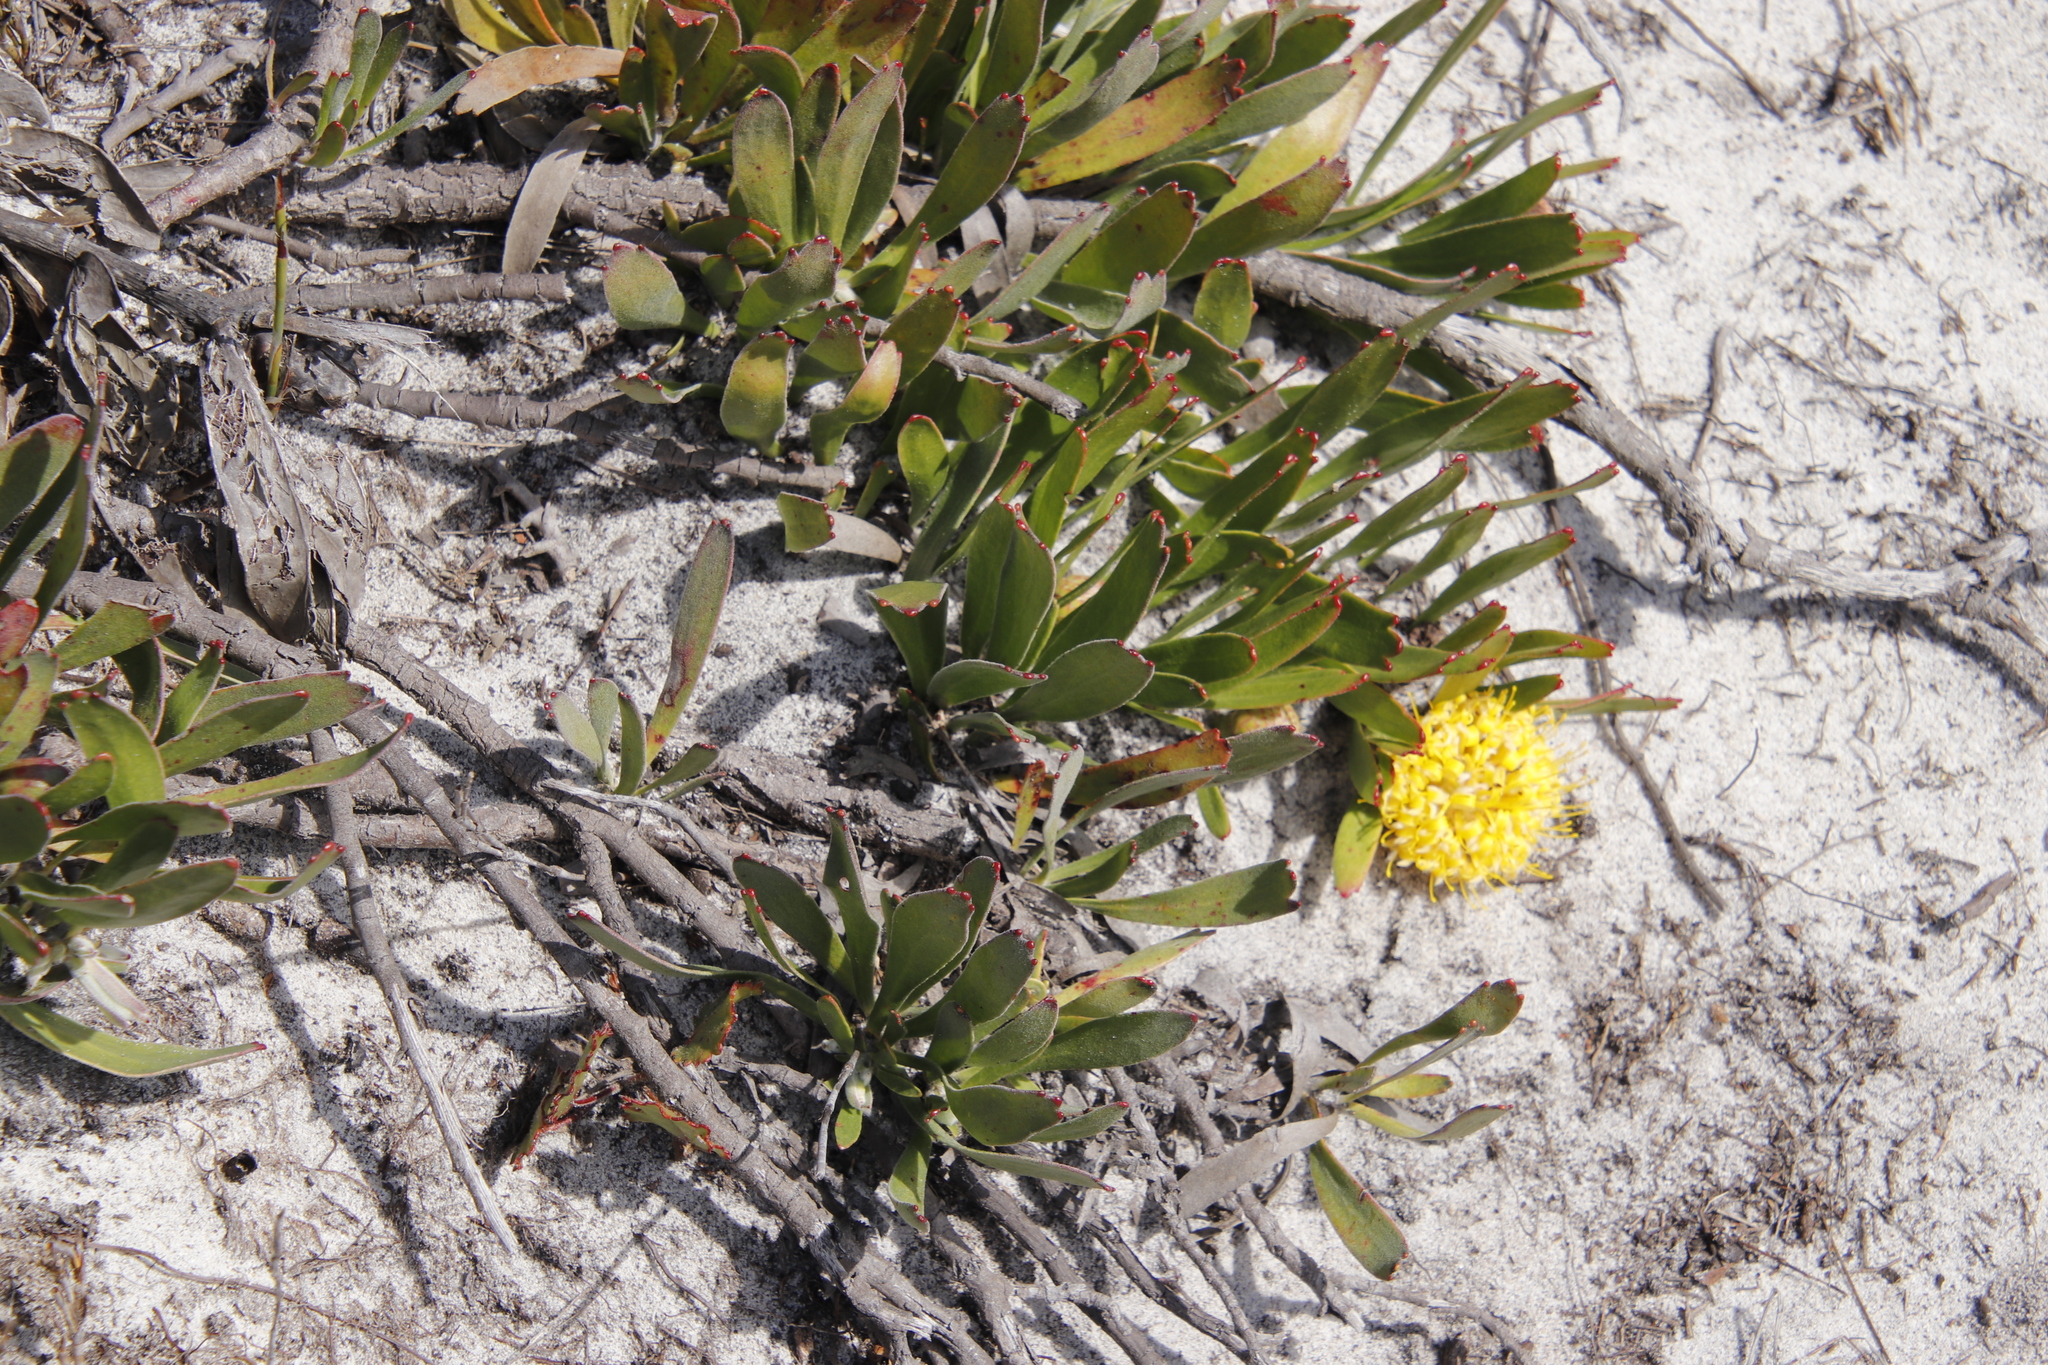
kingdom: Plantae
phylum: Tracheophyta
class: Magnoliopsida
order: Proteales
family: Proteaceae
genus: Leucospermum
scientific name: Leucospermum hypophyllocarpodendron
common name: Snakestem pincushion
